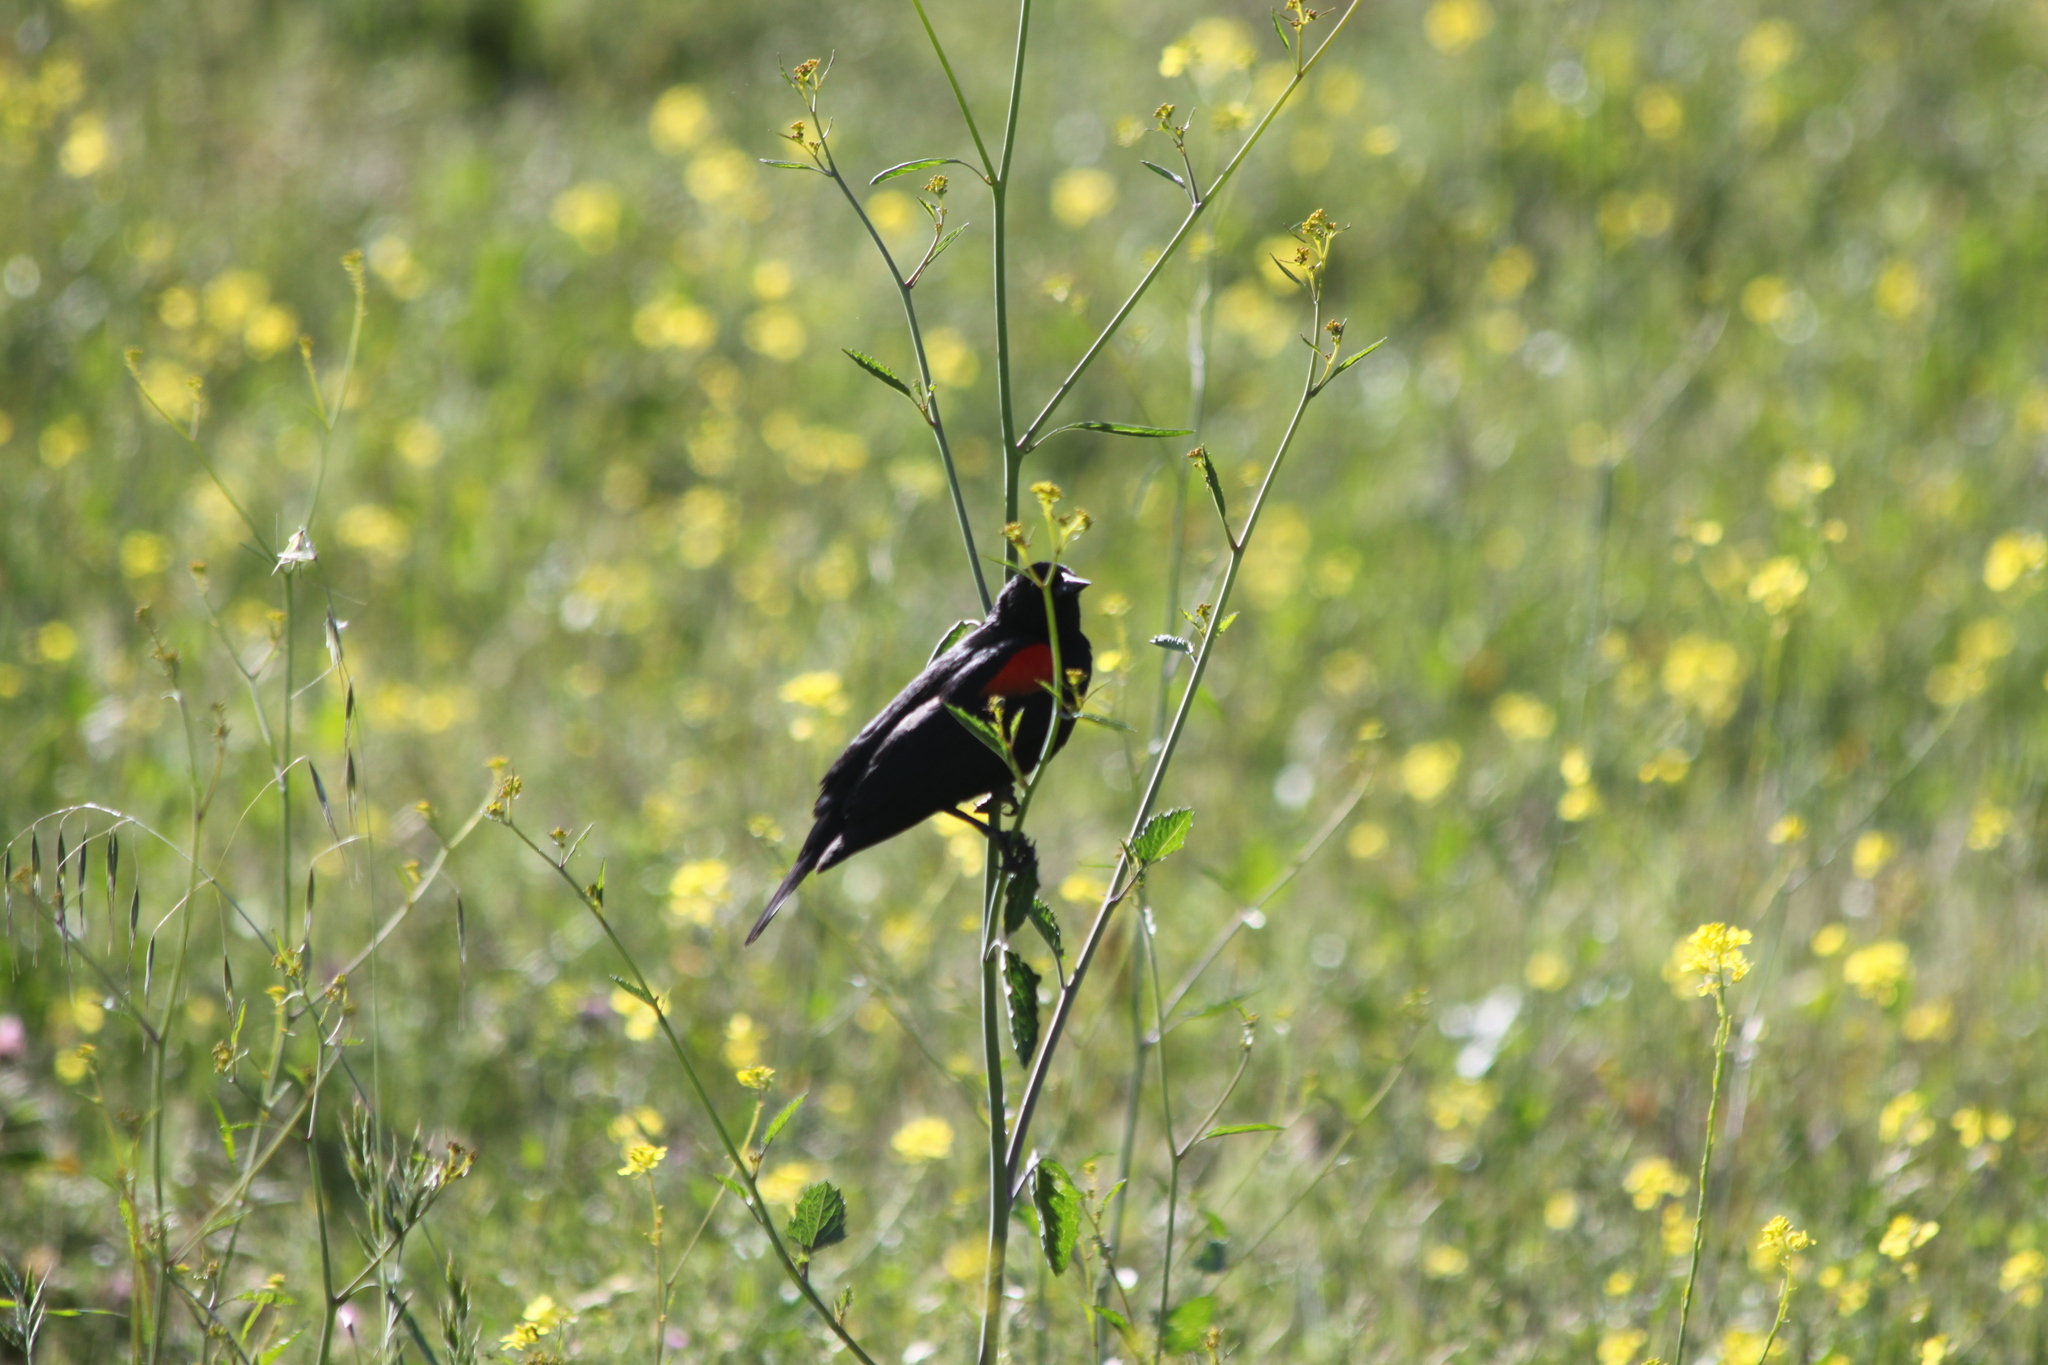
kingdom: Animalia
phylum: Chordata
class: Aves
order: Passeriformes
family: Icteridae
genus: Agelaius
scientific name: Agelaius phoeniceus
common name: Red-winged blackbird
